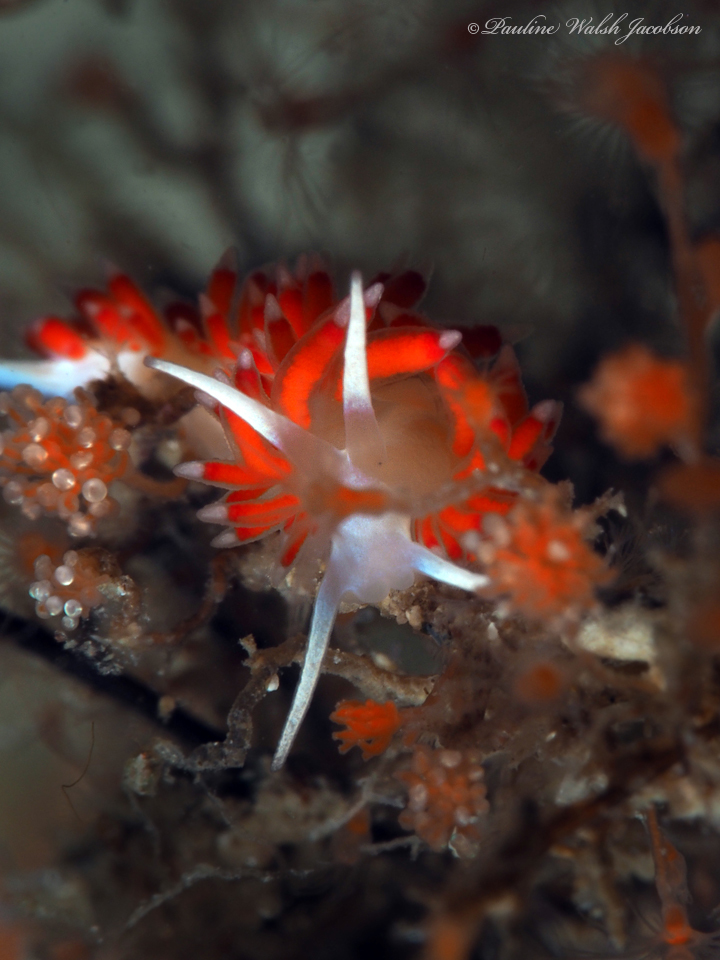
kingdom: Animalia
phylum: Mollusca
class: Gastropoda
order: Nudibranchia
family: Flabellinidae
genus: Flabellina
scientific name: Flabellina dushia
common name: Dushia flabellina
